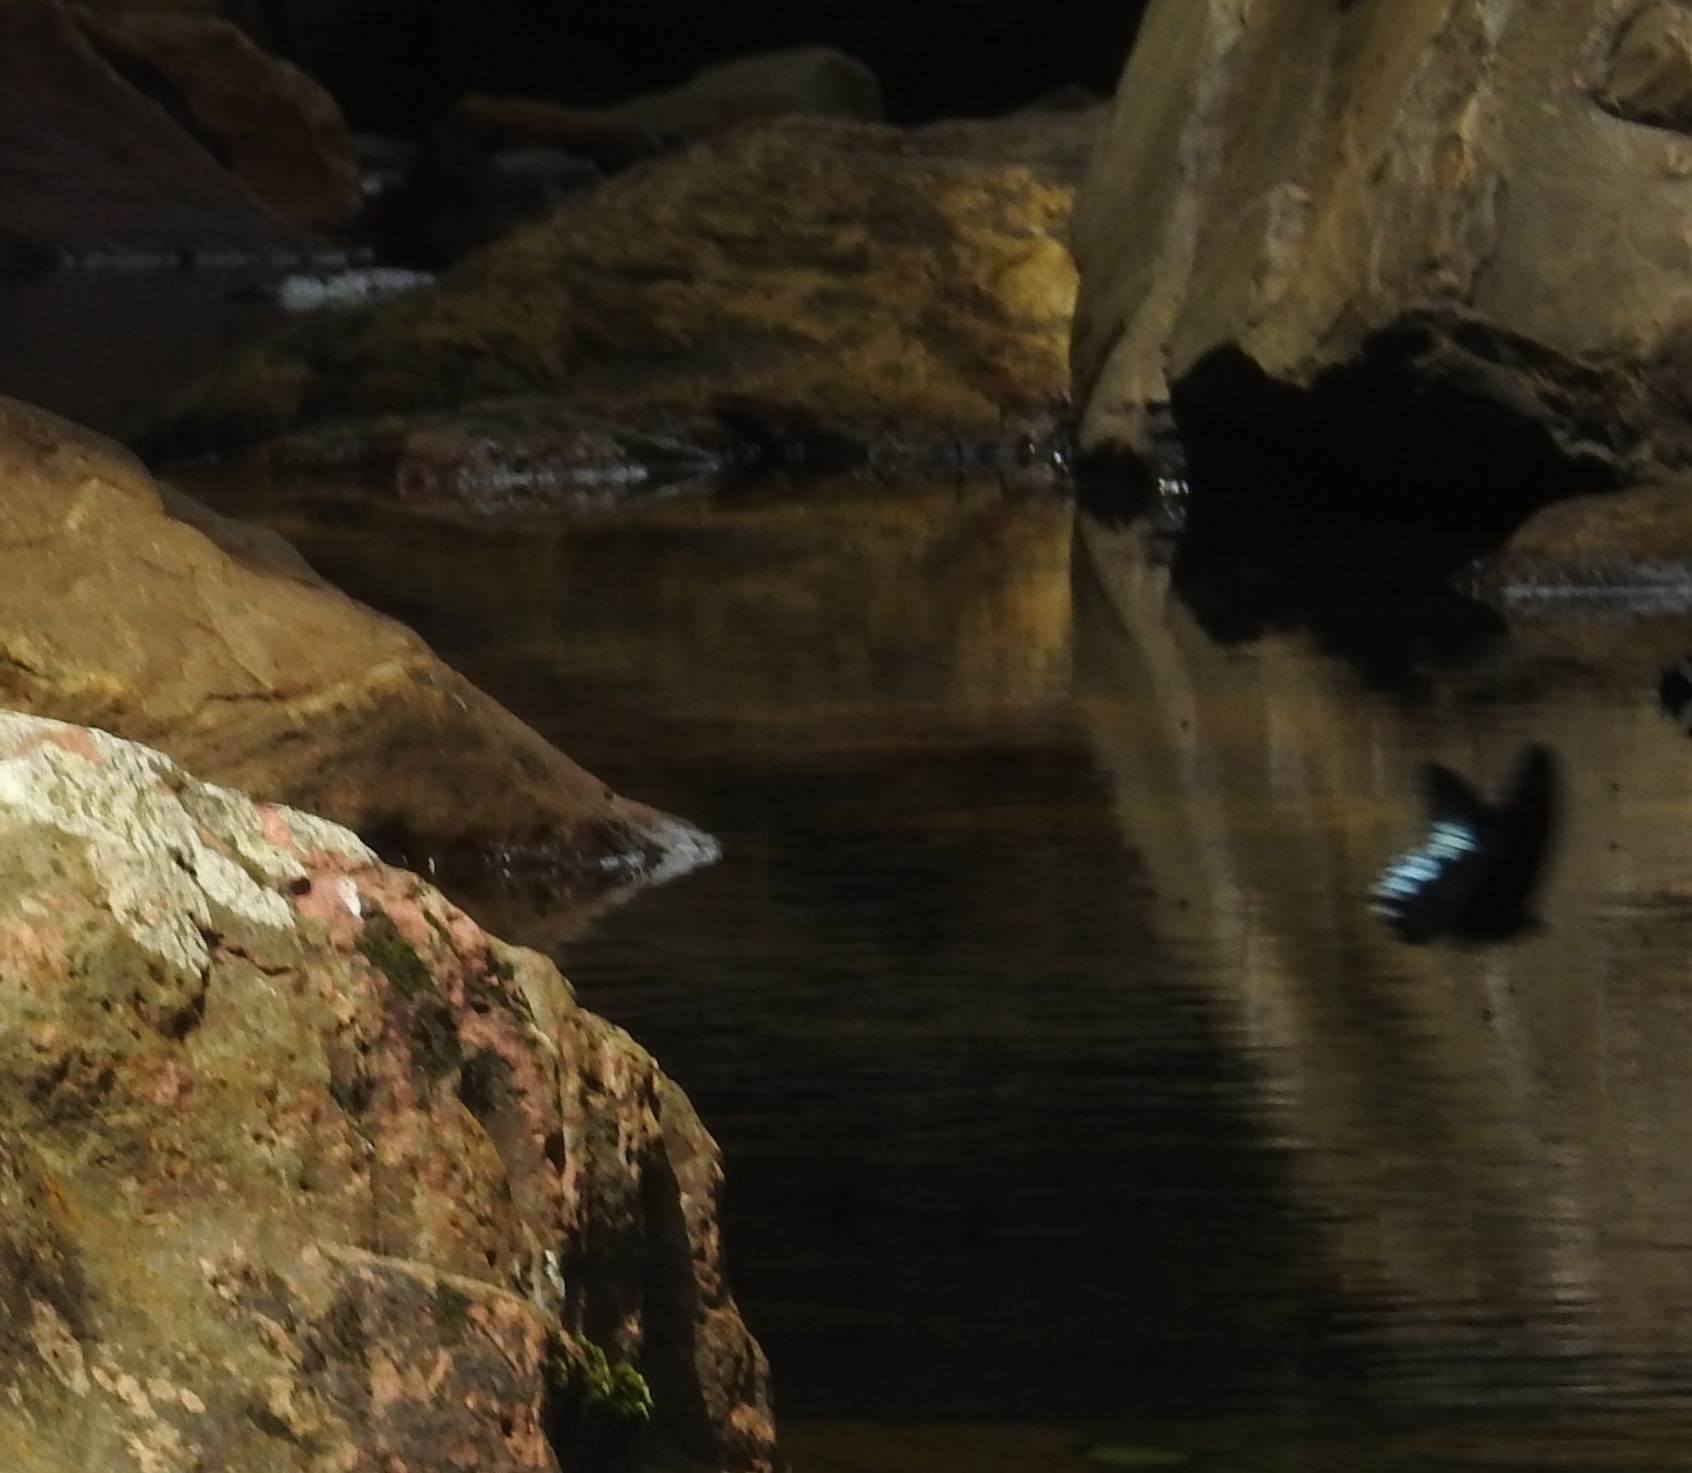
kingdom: Animalia
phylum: Arthropoda
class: Insecta
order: Lepidoptera
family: Papilionidae
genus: Papilio
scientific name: Papilio memnon
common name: Great mormon
